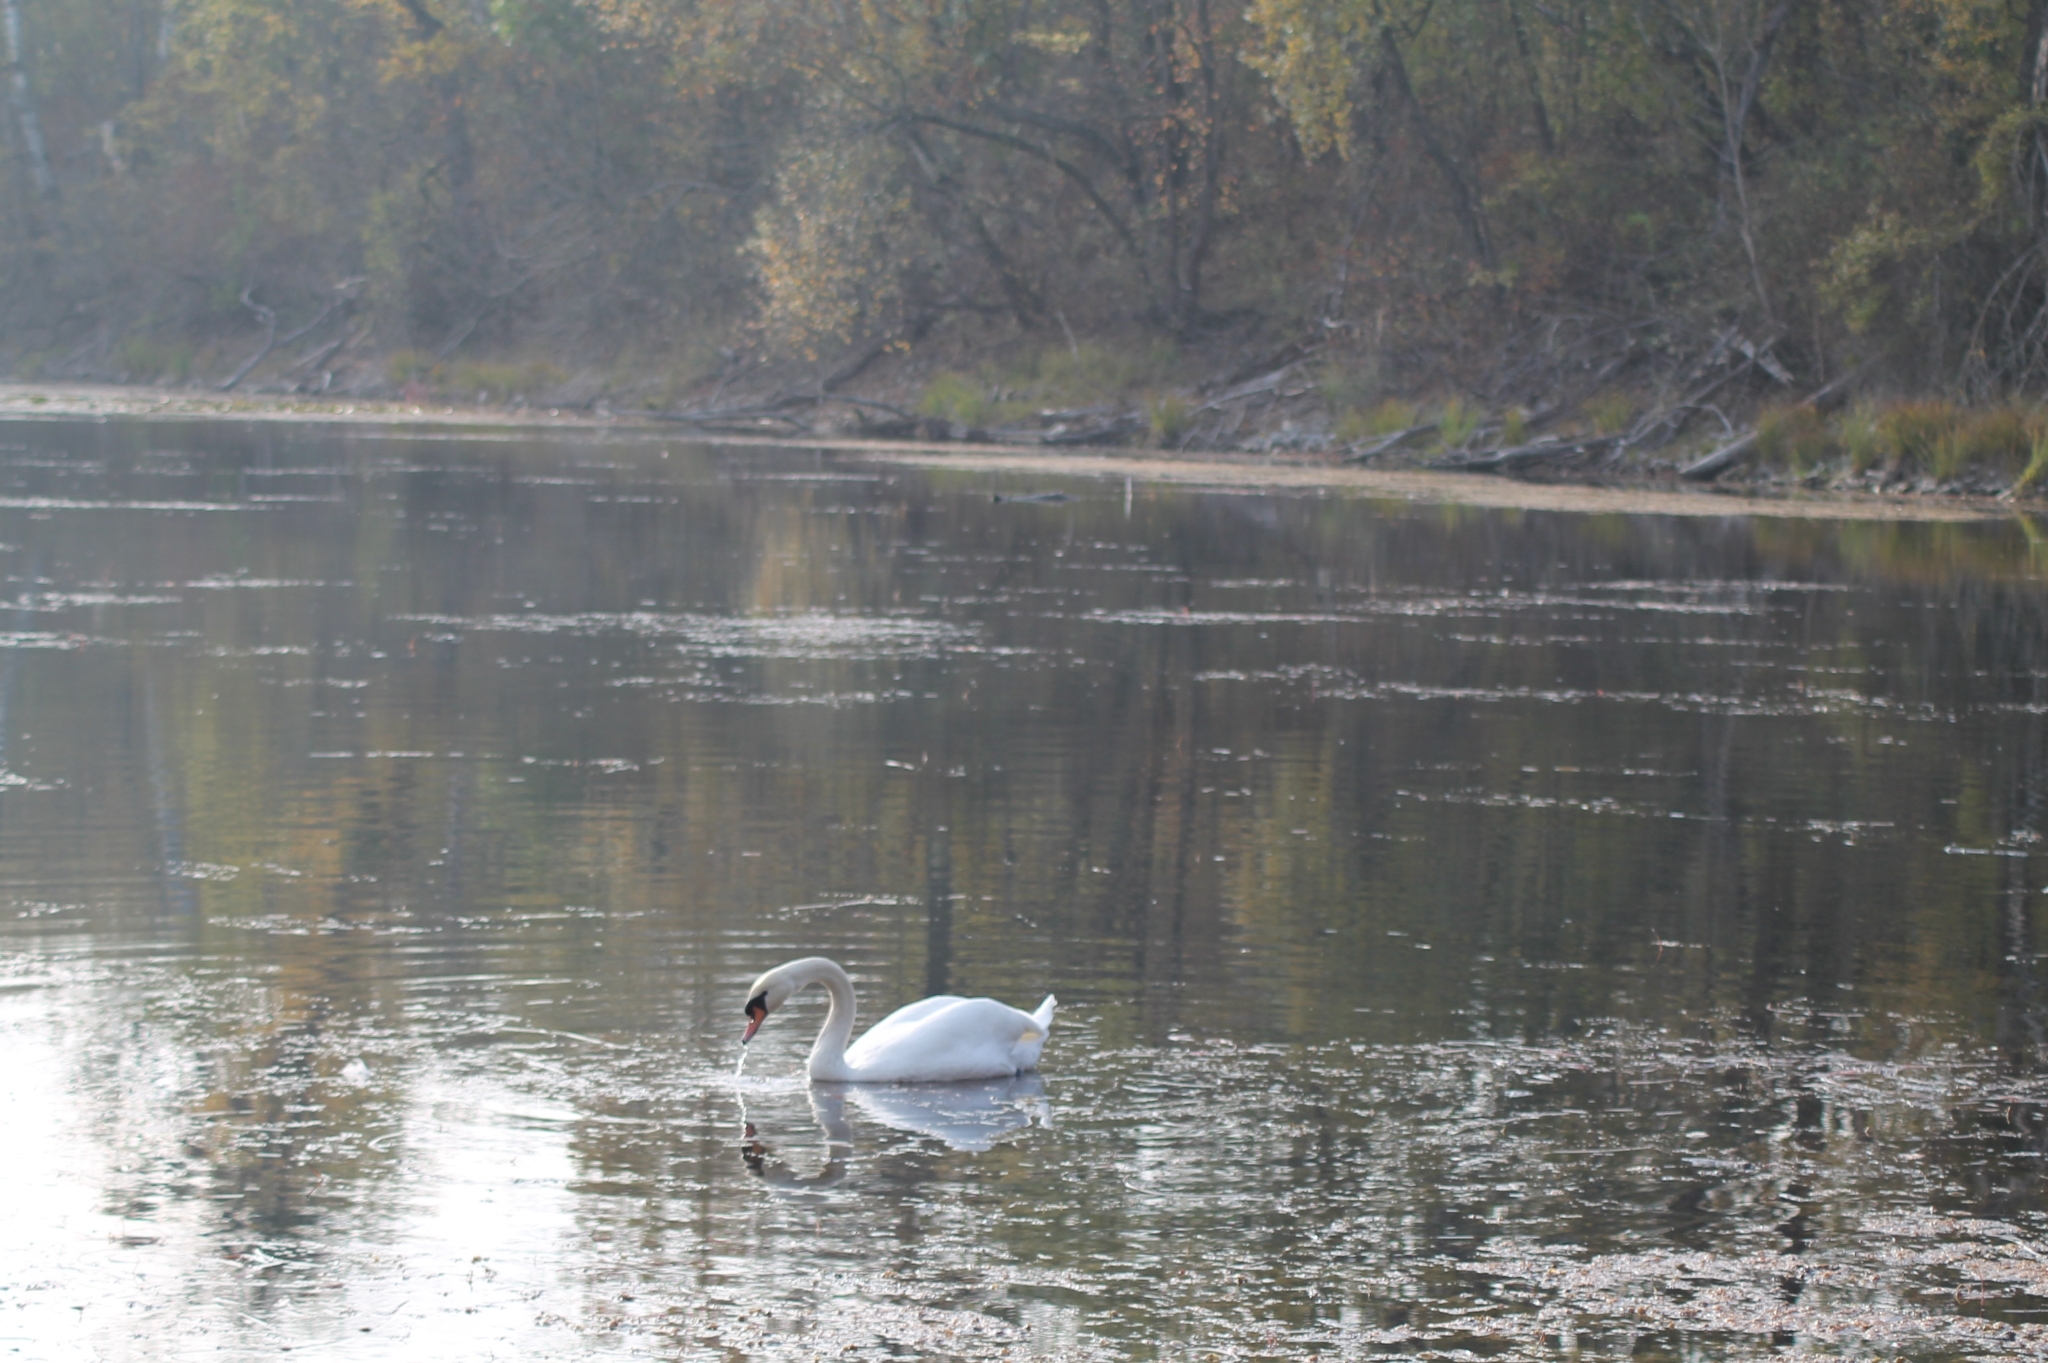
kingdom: Animalia
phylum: Chordata
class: Aves
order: Anseriformes
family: Anatidae
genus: Cygnus
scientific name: Cygnus olor
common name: Mute swan
